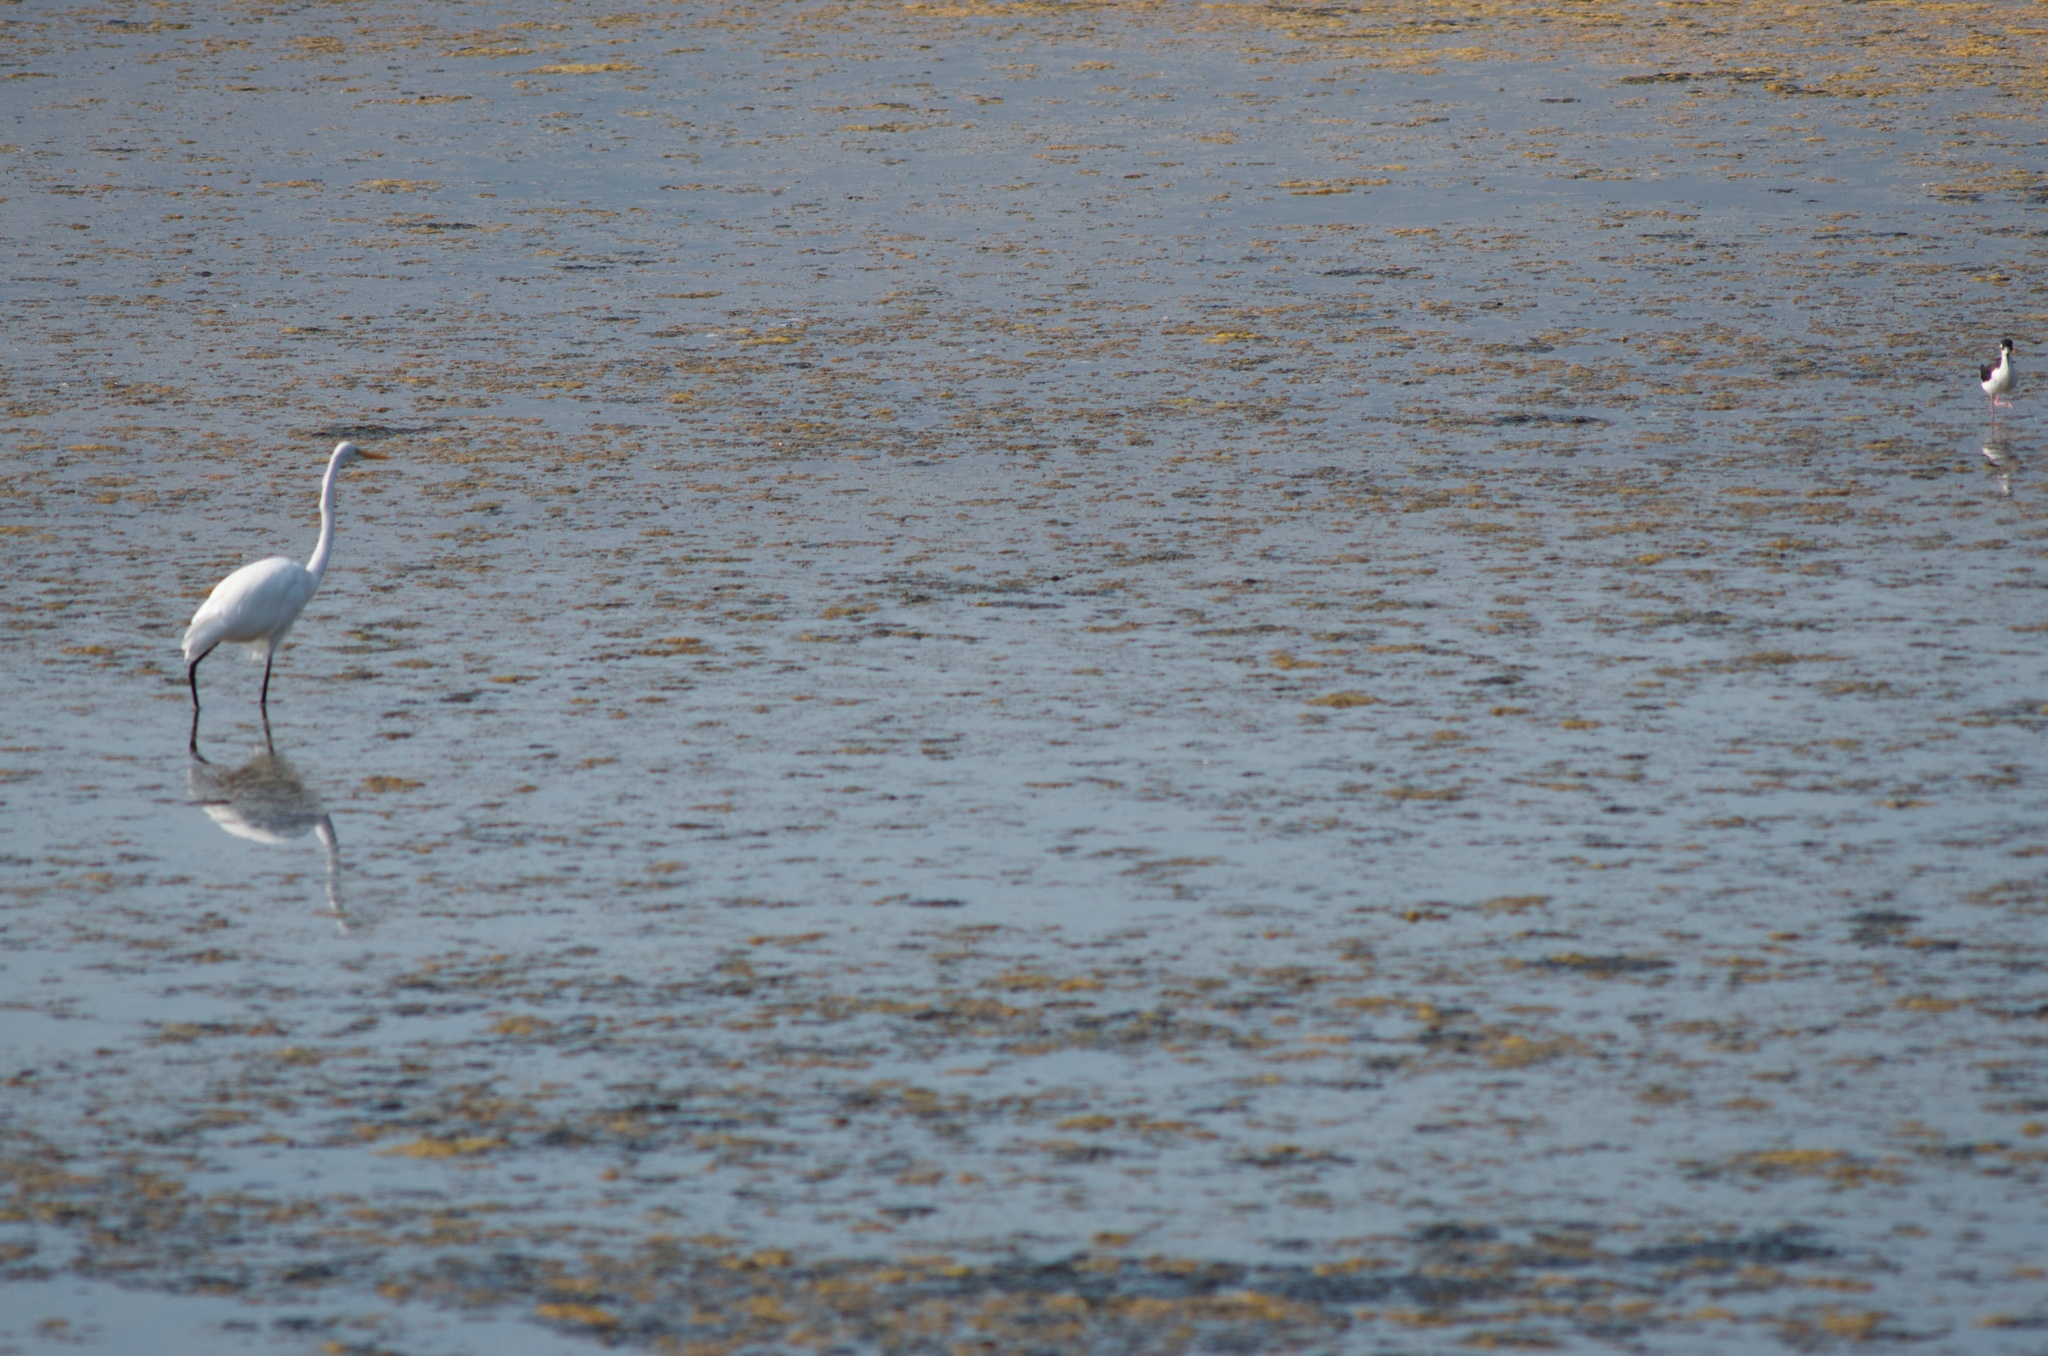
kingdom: Animalia
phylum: Chordata
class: Aves
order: Charadriiformes
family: Recurvirostridae
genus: Himantopus
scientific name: Himantopus mexicanus
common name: Black-necked stilt
